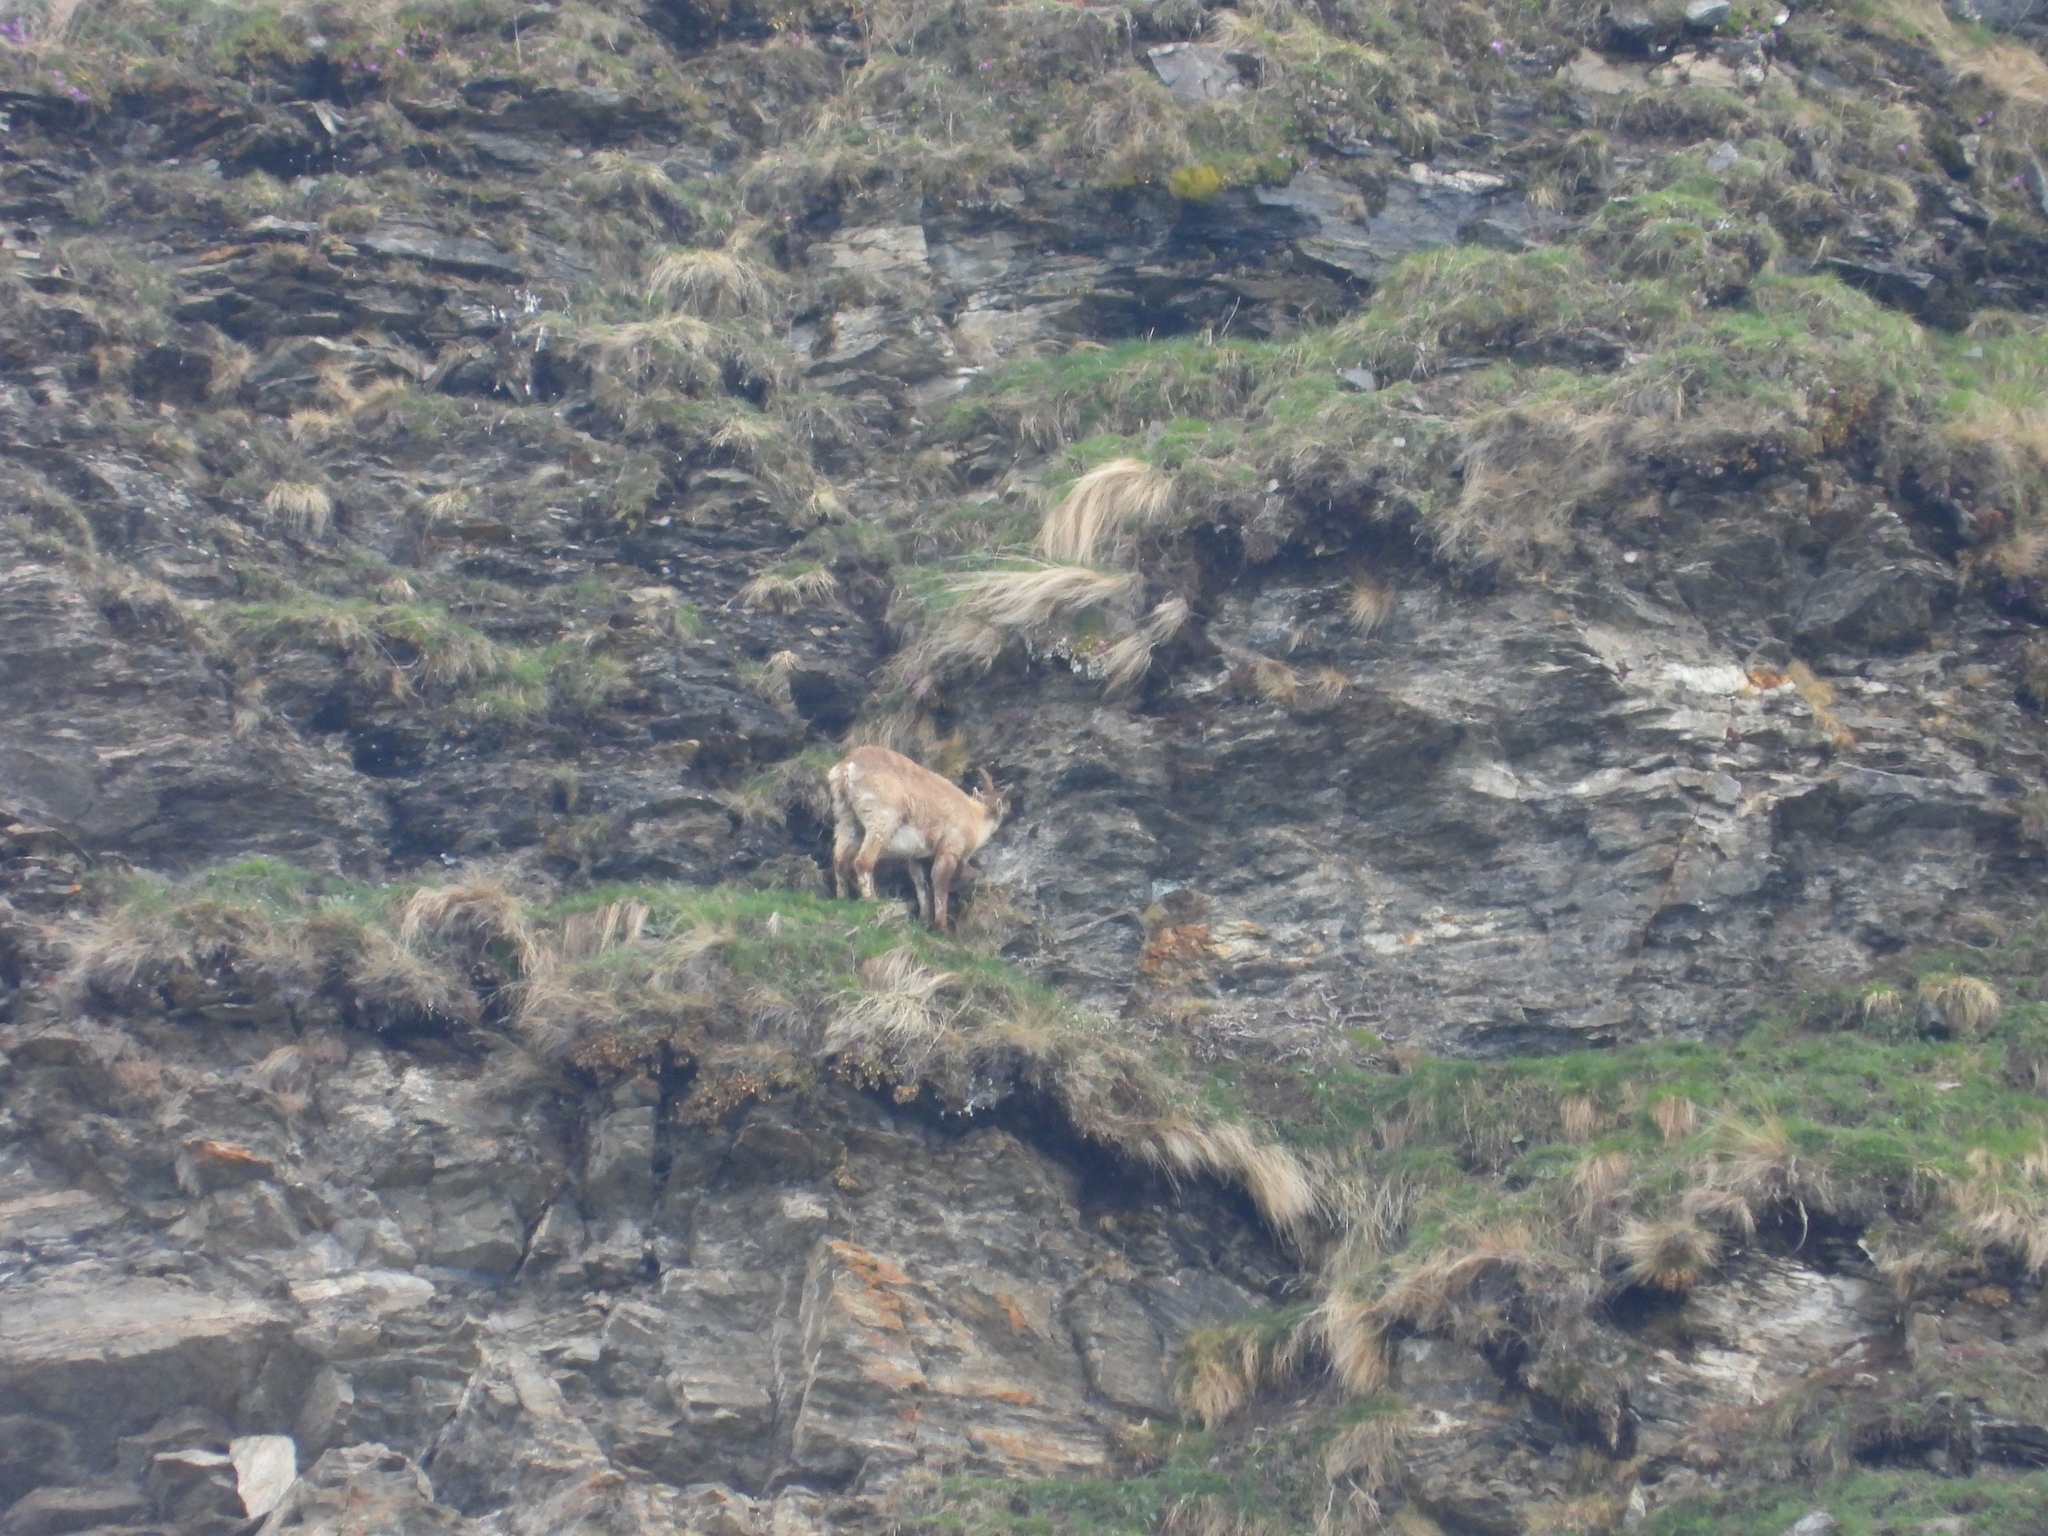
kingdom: Animalia
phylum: Chordata
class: Mammalia
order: Artiodactyla
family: Bovidae
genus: Capra
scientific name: Capra ibex
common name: Alpine ibex
